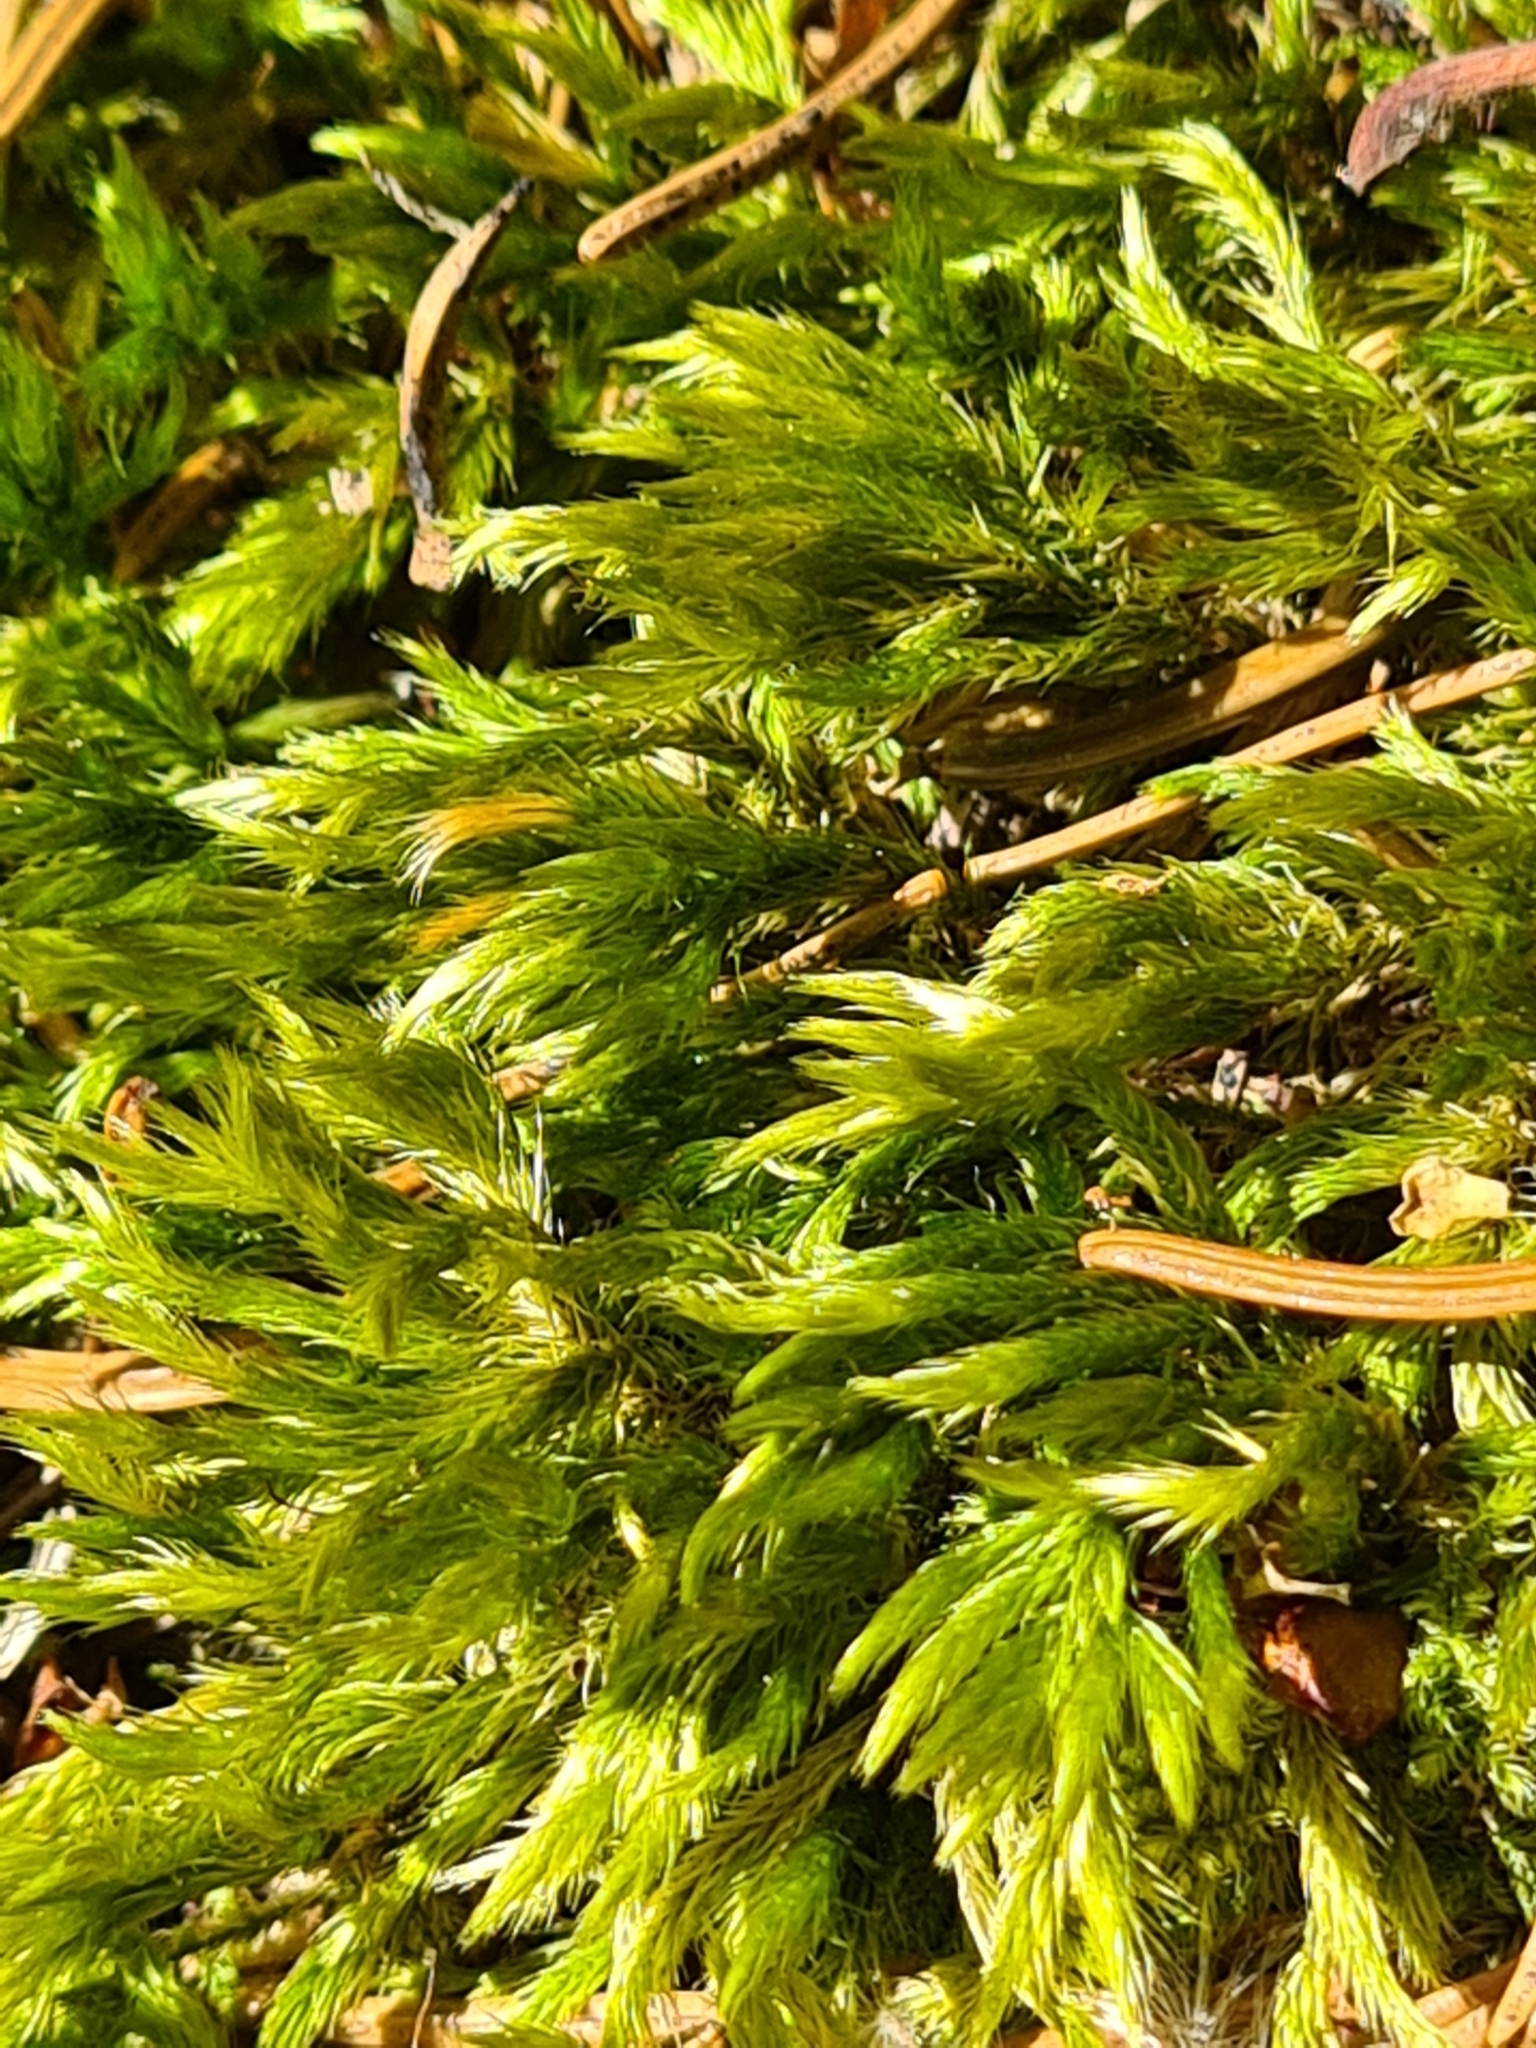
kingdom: Plantae
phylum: Bryophyta
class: Bryopsida
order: Hypnales
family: Brachytheciaceae
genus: Homalothecium
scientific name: Homalothecium lutescens
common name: Yellow feather-moss
